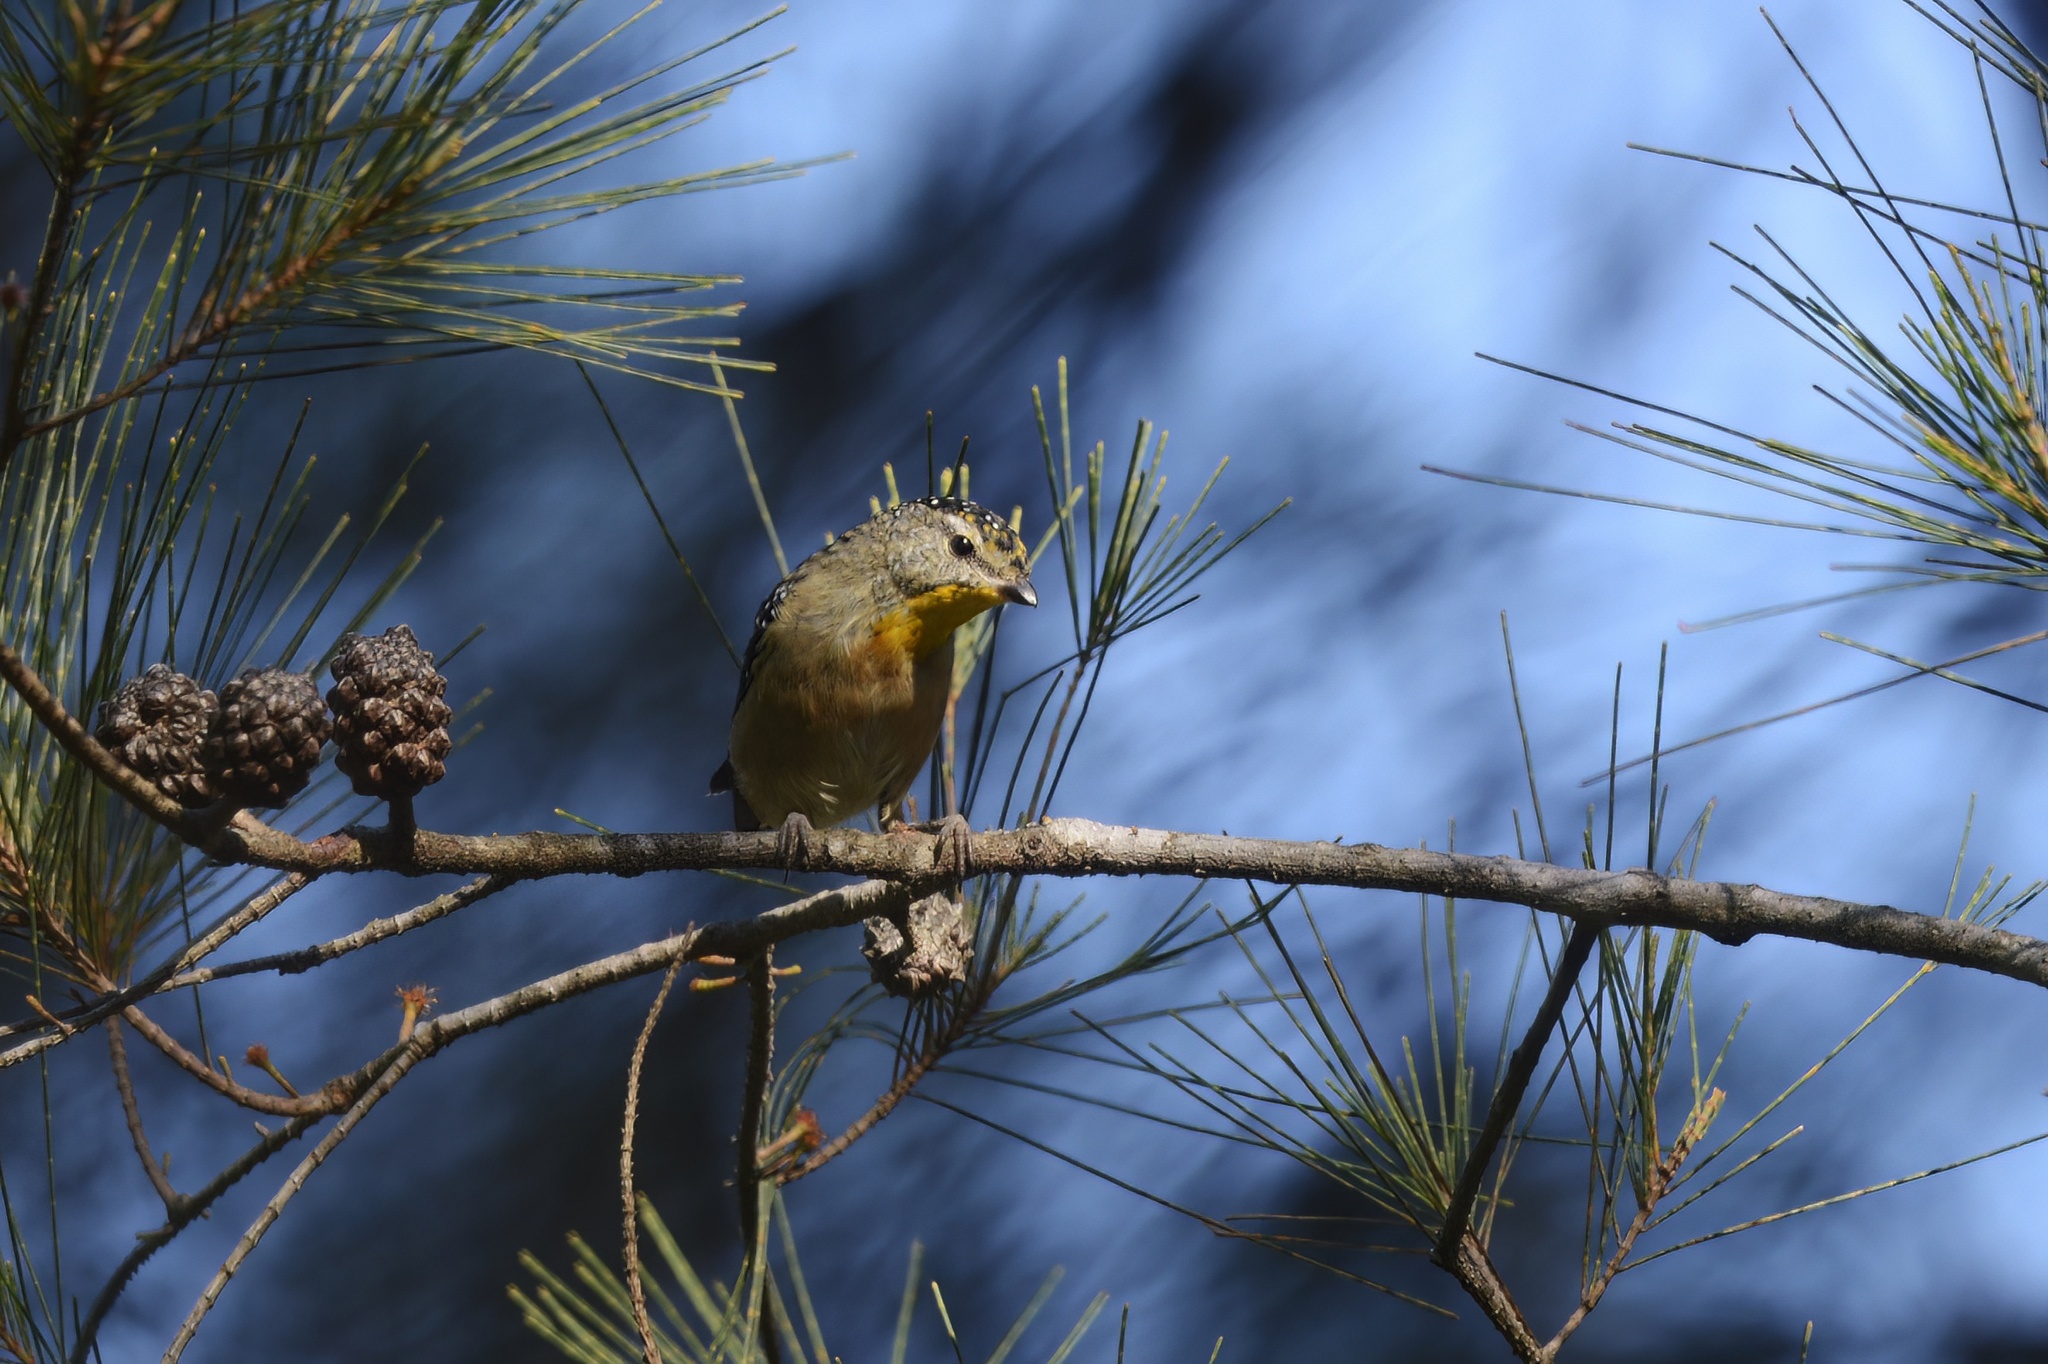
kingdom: Animalia
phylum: Chordata
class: Aves
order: Passeriformes
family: Pardalotidae
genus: Pardalotus
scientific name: Pardalotus punctatus
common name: Spotted pardalote
